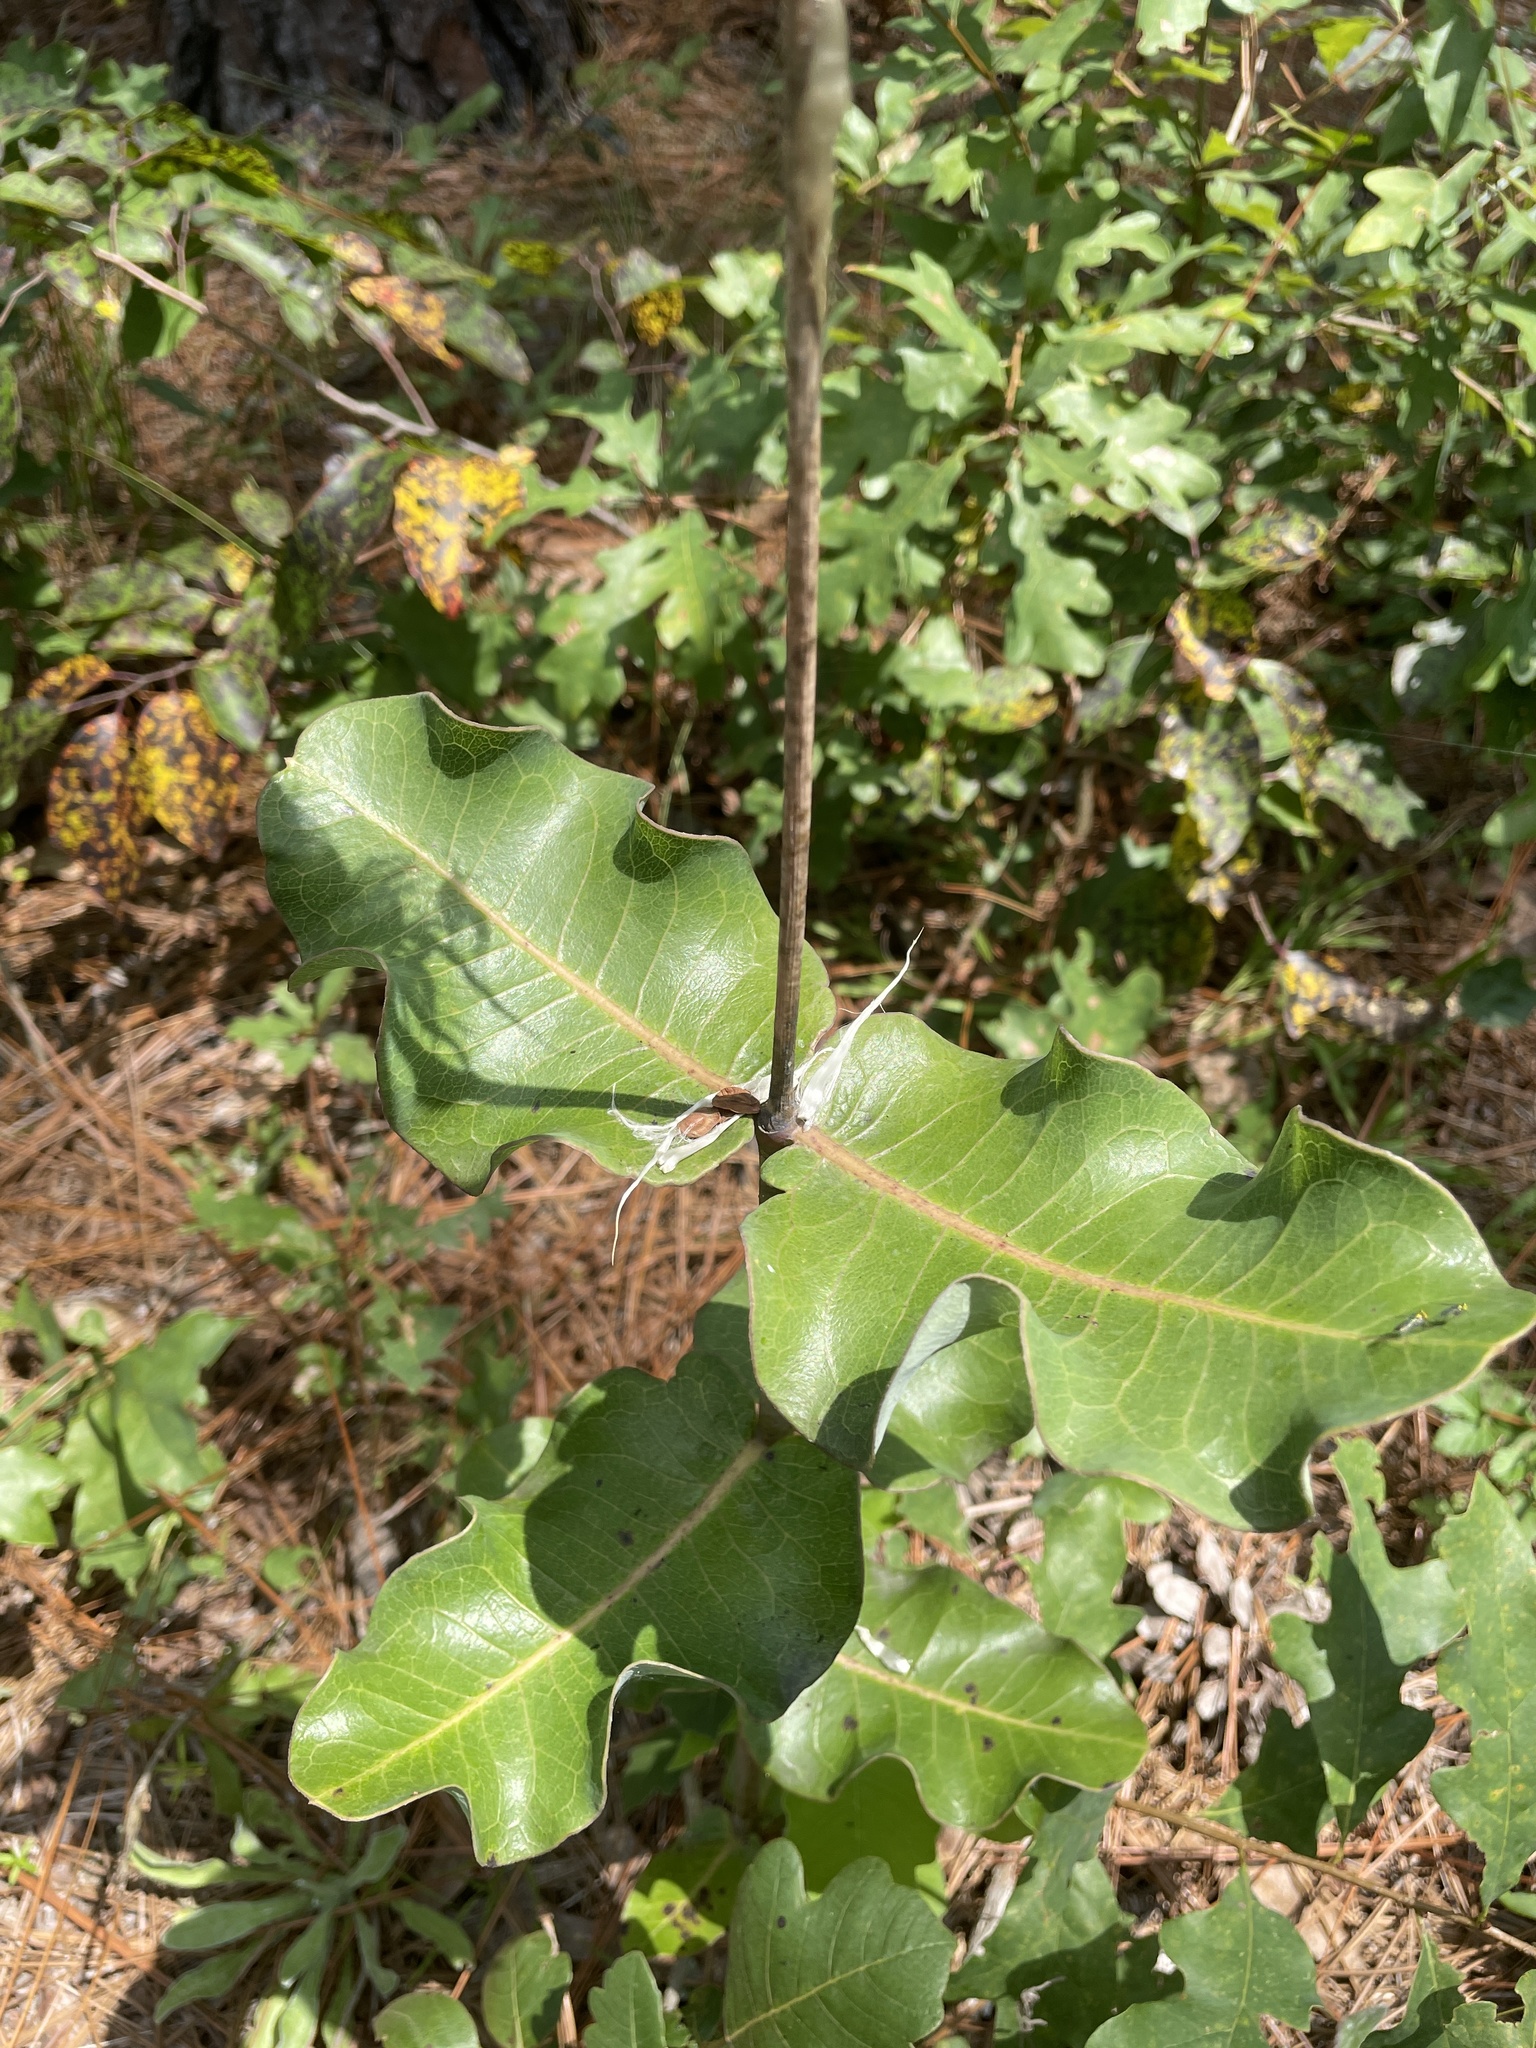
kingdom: Plantae
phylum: Tracheophyta
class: Magnoliopsida
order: Gentianales
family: Apocynaceae
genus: Asclepias
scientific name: Asclepias amplexicaulis
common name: Blunt-leaf milkweed
